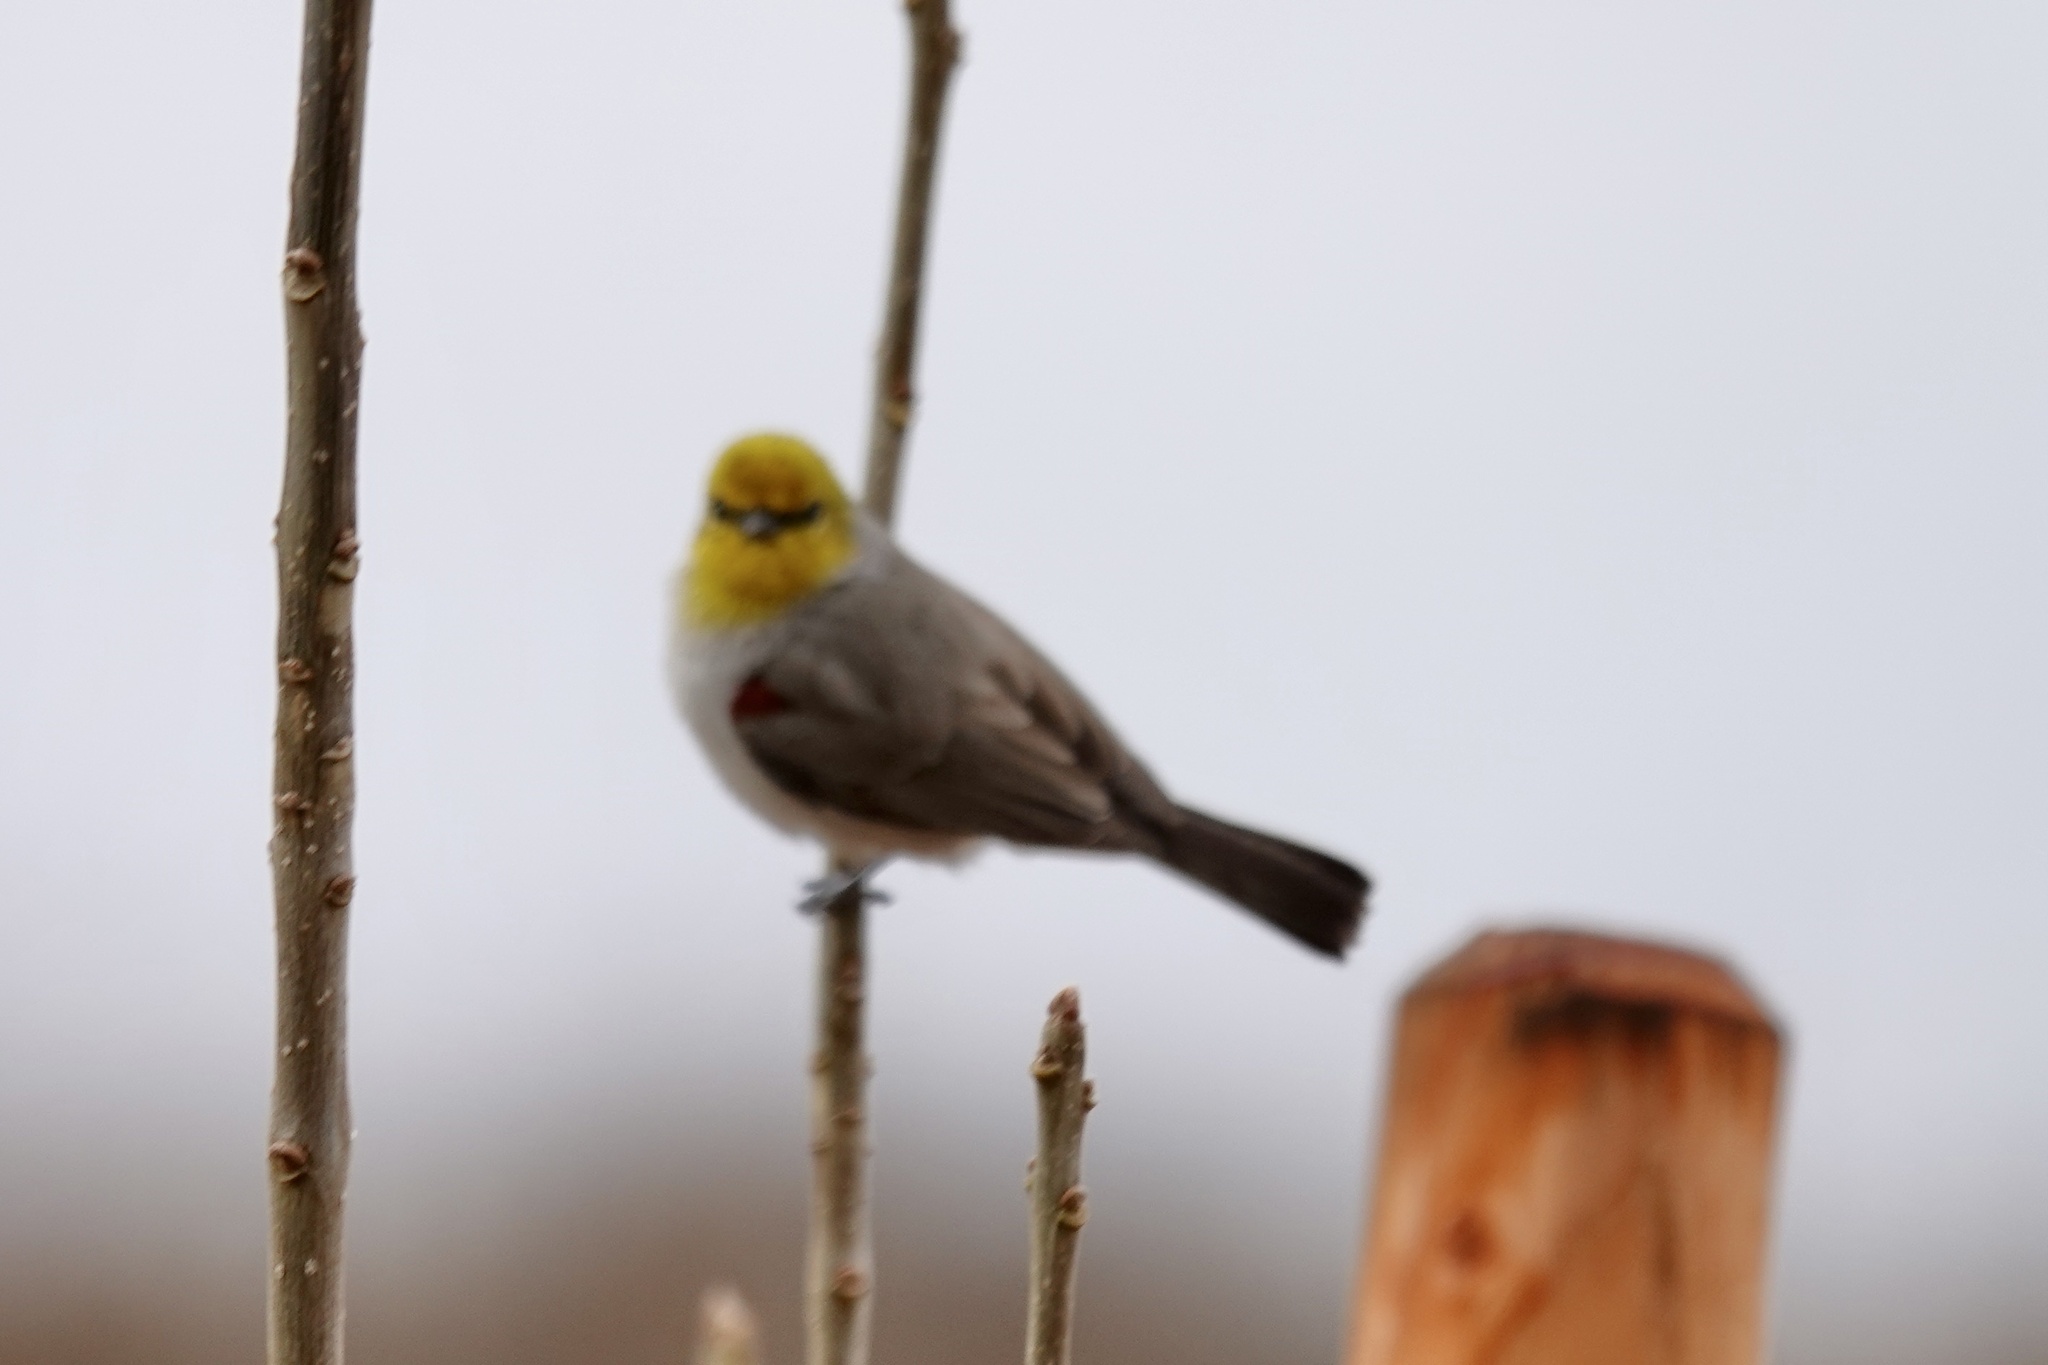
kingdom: Animalia
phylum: Chordata
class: Aves
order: Passeriformes
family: Remizidae
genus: Auriparus
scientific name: Auriparus flaviceps
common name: Verdin
